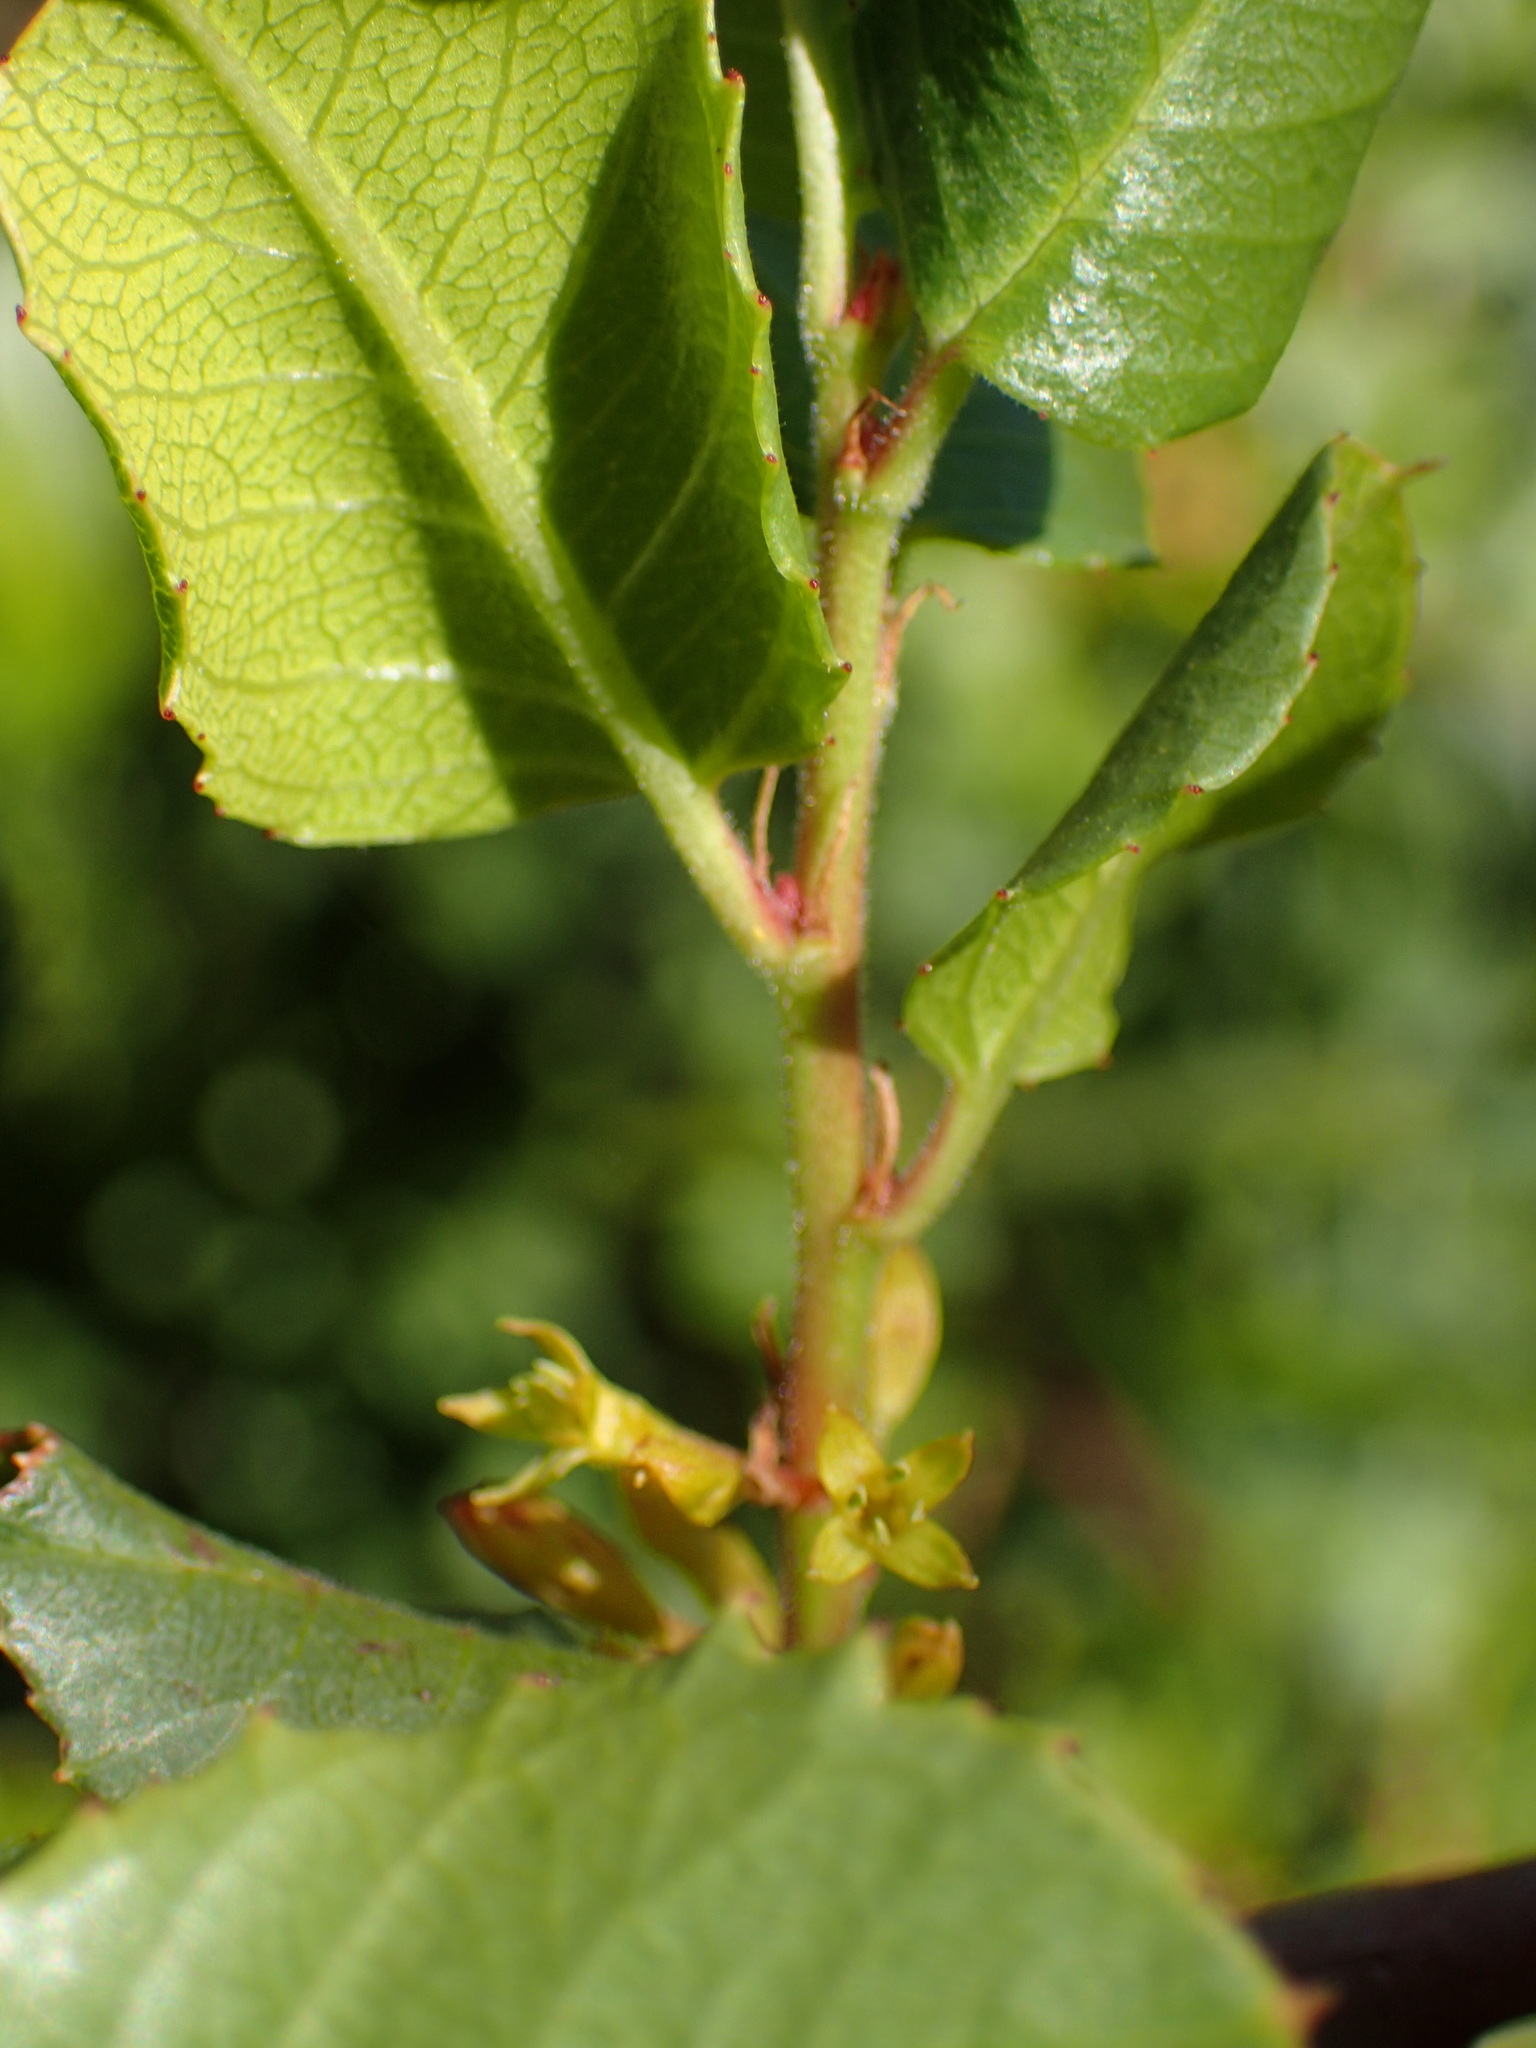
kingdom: Plantae
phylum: Tracheophyta
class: Magnoliopsida
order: Rosales
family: Rhamnaceae
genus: Endotropis
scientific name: Endotropis crocea
